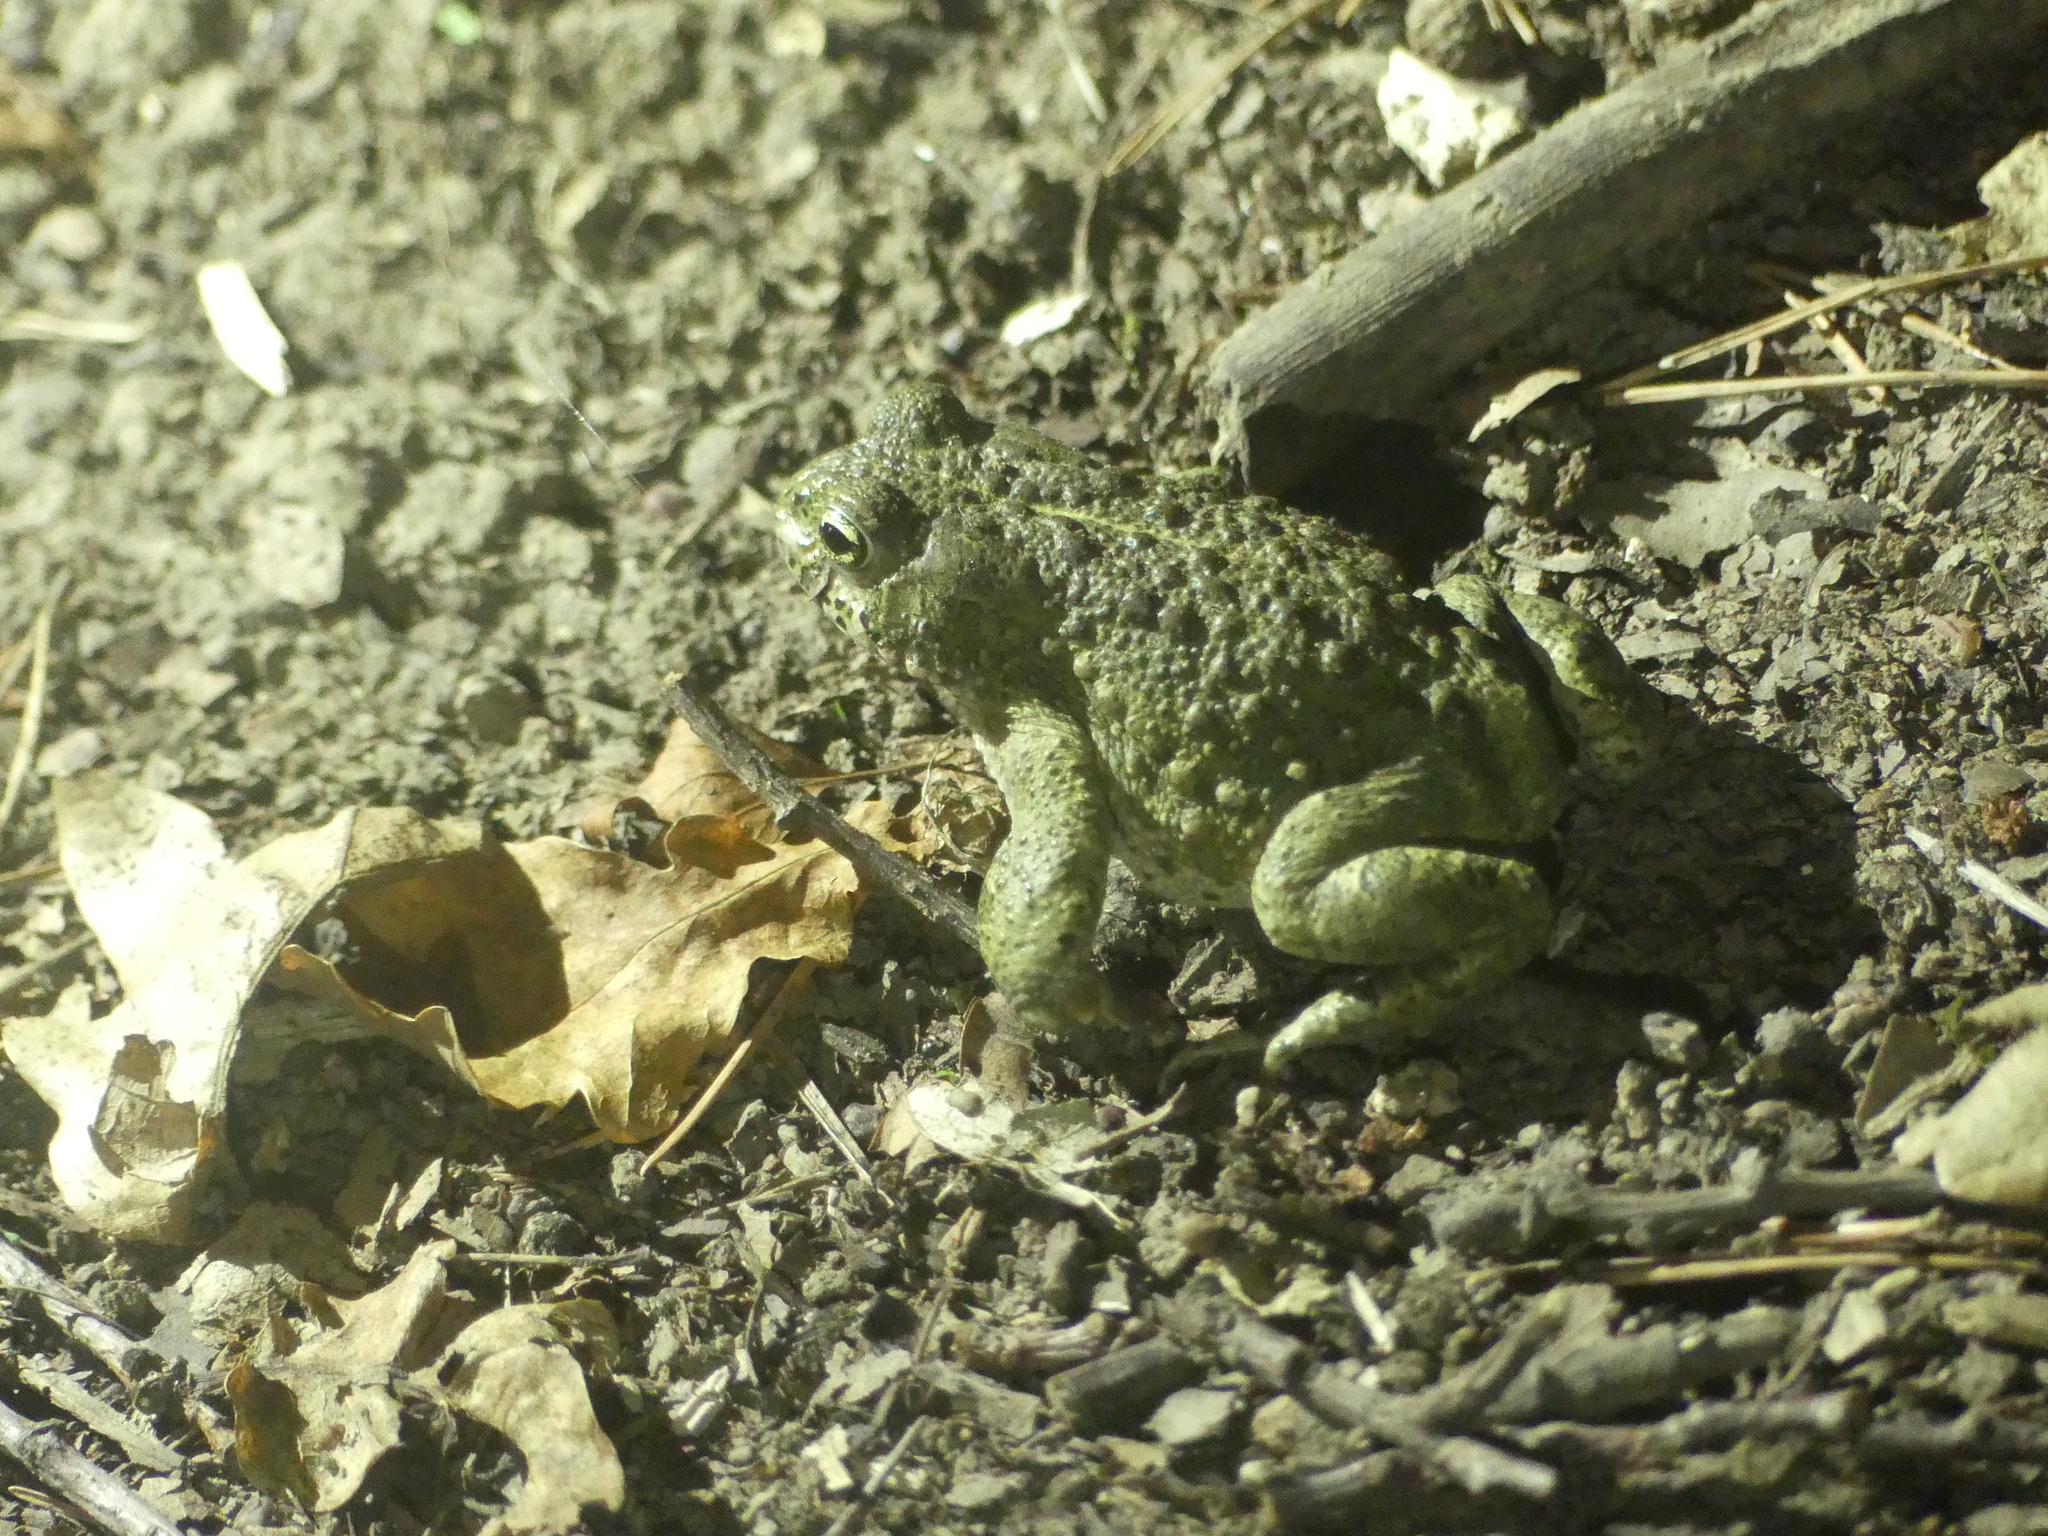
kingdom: Animalia
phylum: Chordata
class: Amphibia
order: Anura
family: Bufonidae
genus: Epidalea
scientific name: Epidalea calamita
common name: Natterjack toad
